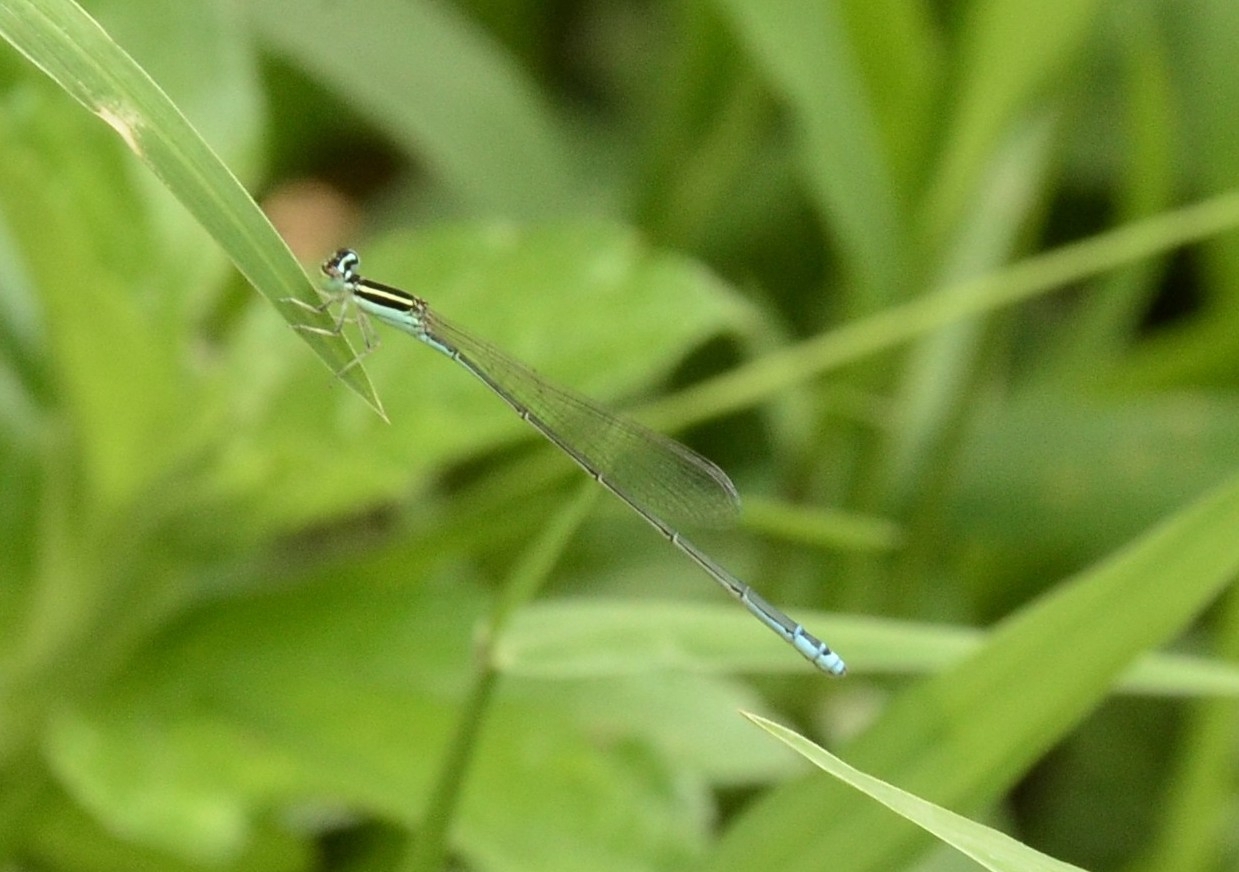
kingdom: Animalia
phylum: Arthropoda
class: Insecta
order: Odonata
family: Coenagrionidae
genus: Aciagrion
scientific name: Aciagrion occidentale
